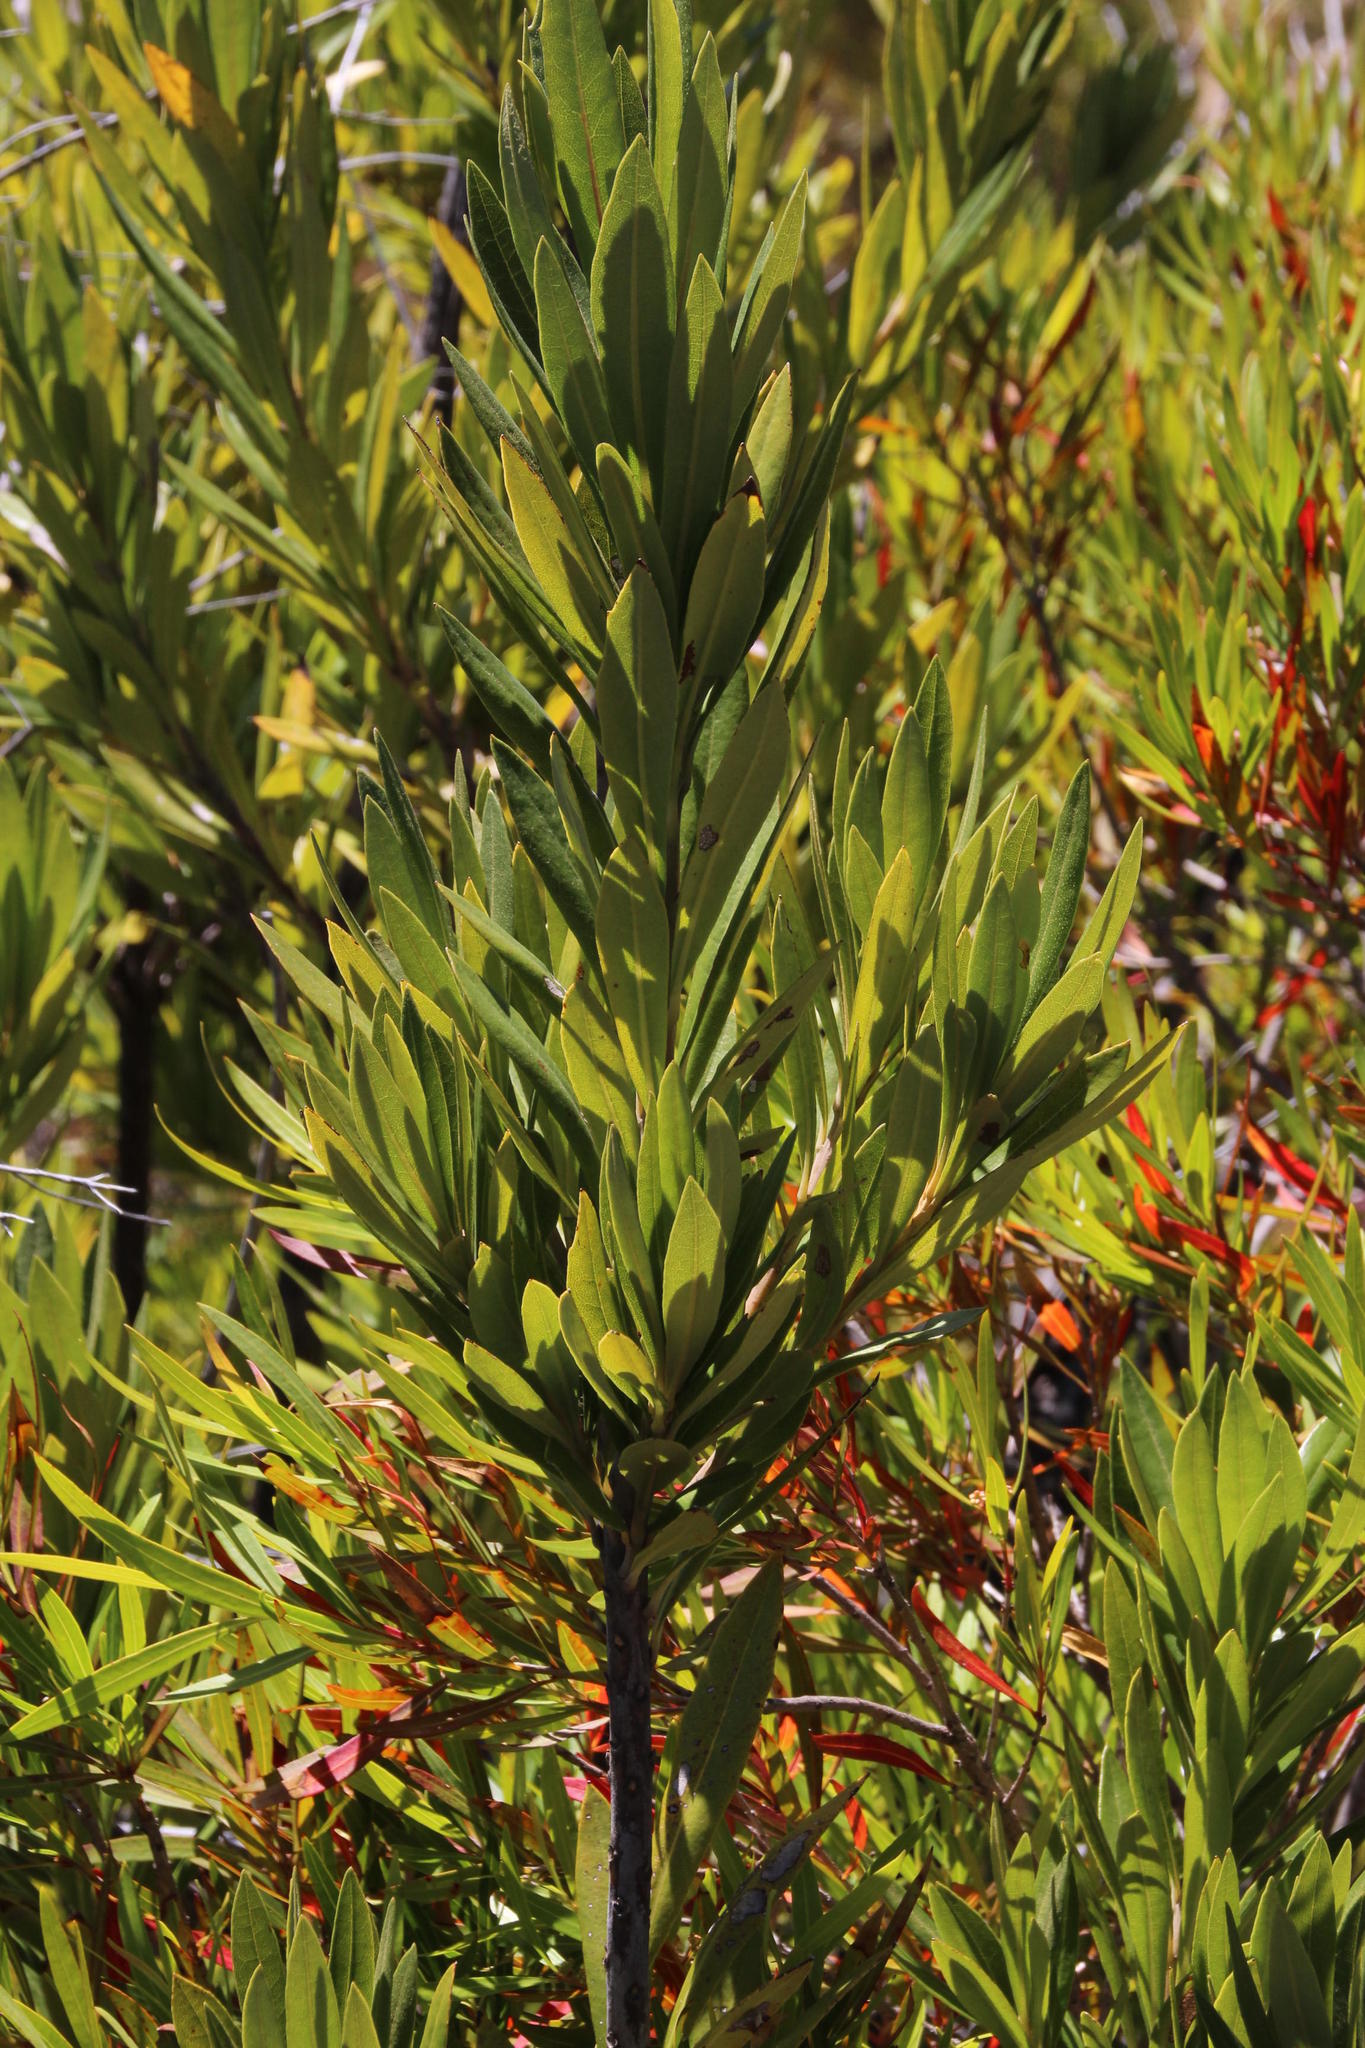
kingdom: Plantae
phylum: Tracheophyta
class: Magnoliopsida
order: Asterales
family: Asteraceae
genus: Brachylaena
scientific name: Brachylaena neriifolia
